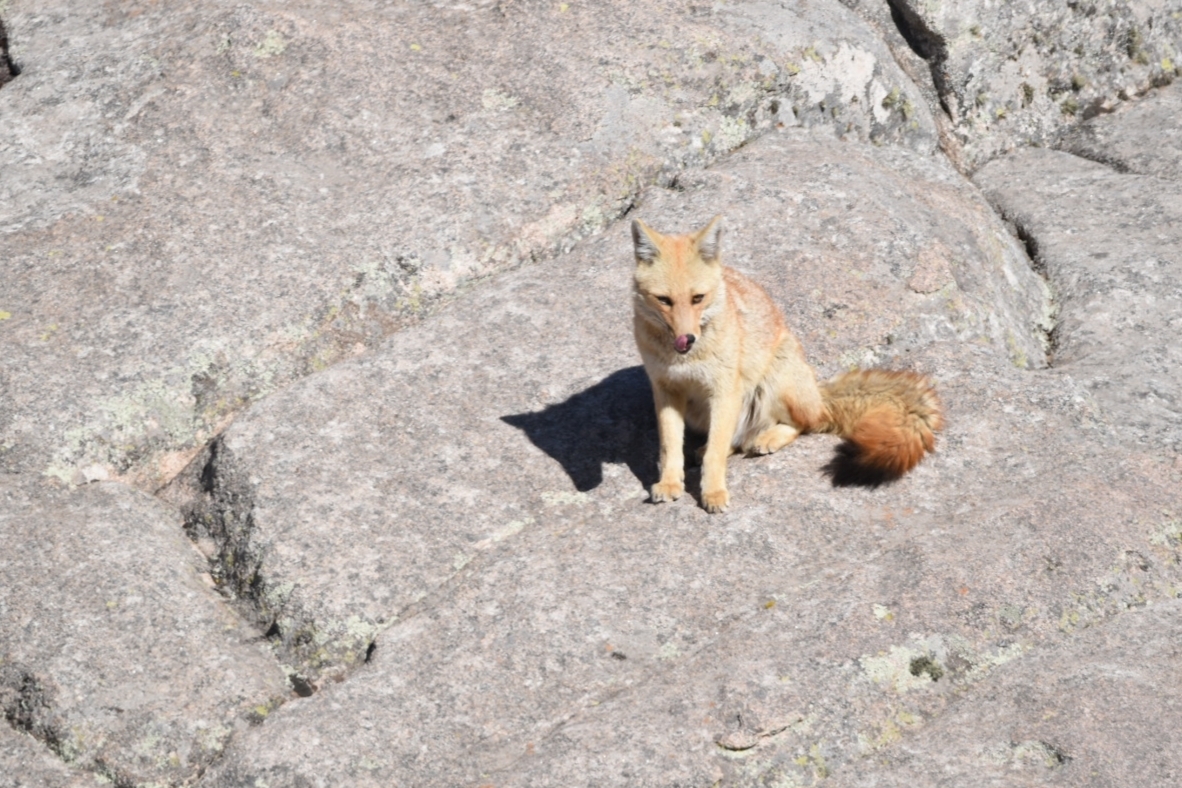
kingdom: Animalia
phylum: Chordata
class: Mammalia
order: Carnivora
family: Canidae
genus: Lycalopex
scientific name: Lycalopex culpaeus
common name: Culpeo
